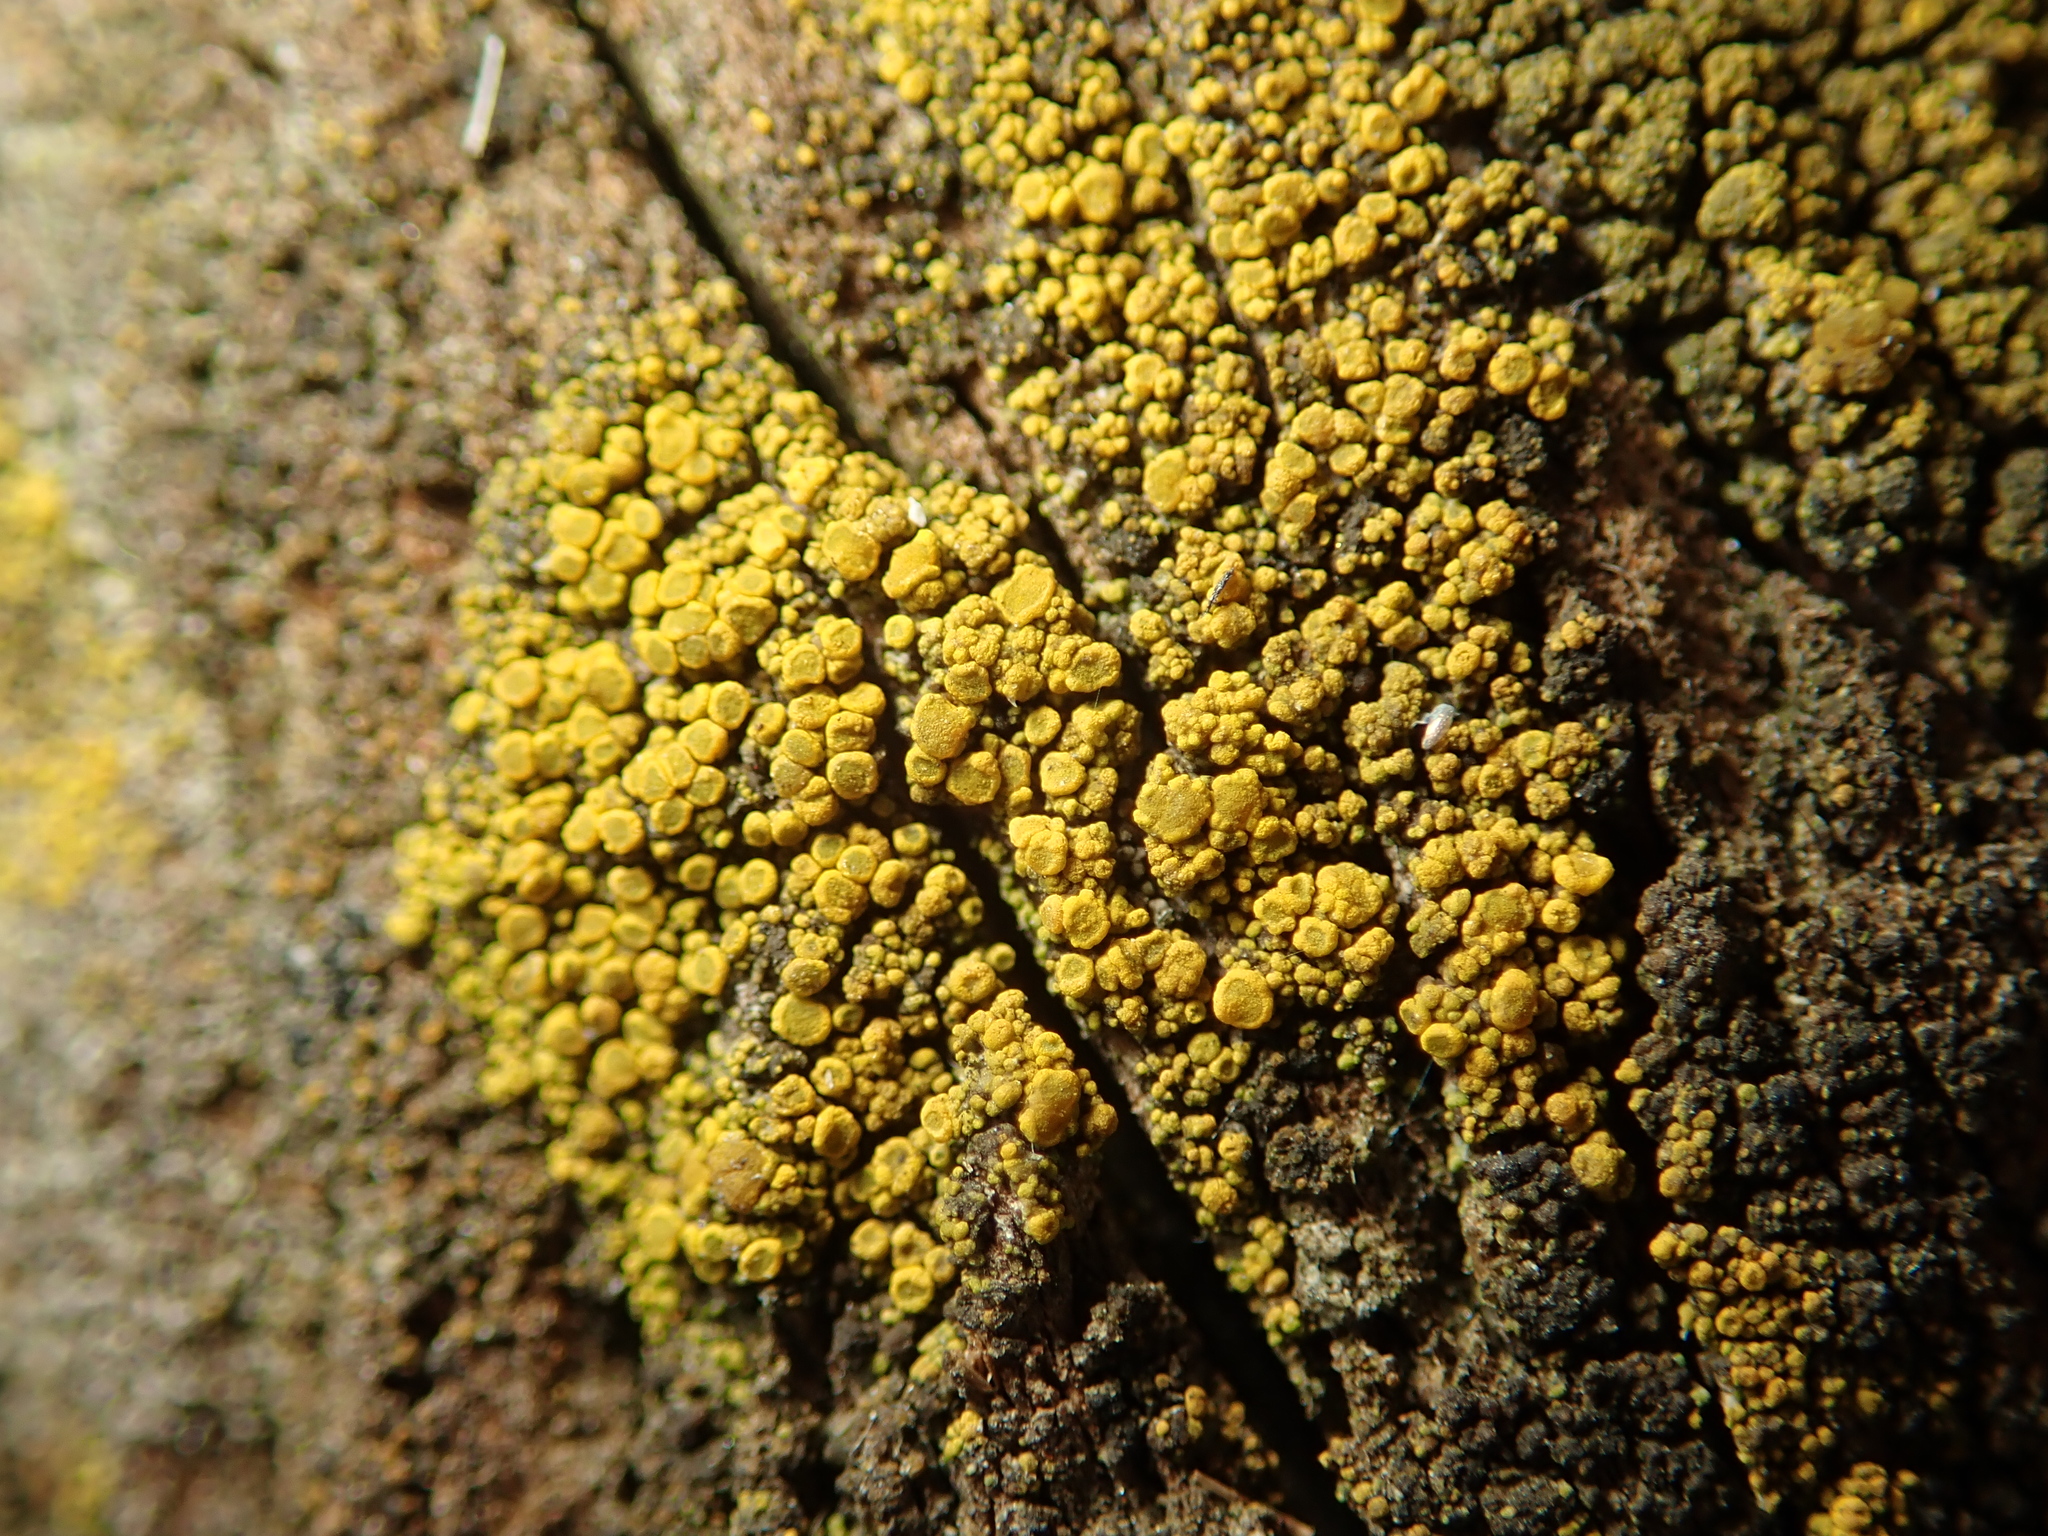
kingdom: Fungi
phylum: Ascomycota
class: Candelariomycetes
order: Candelariales
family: Candelariaceae
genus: Candelariella
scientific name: Candelariella vitellina
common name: Common goldspeck
